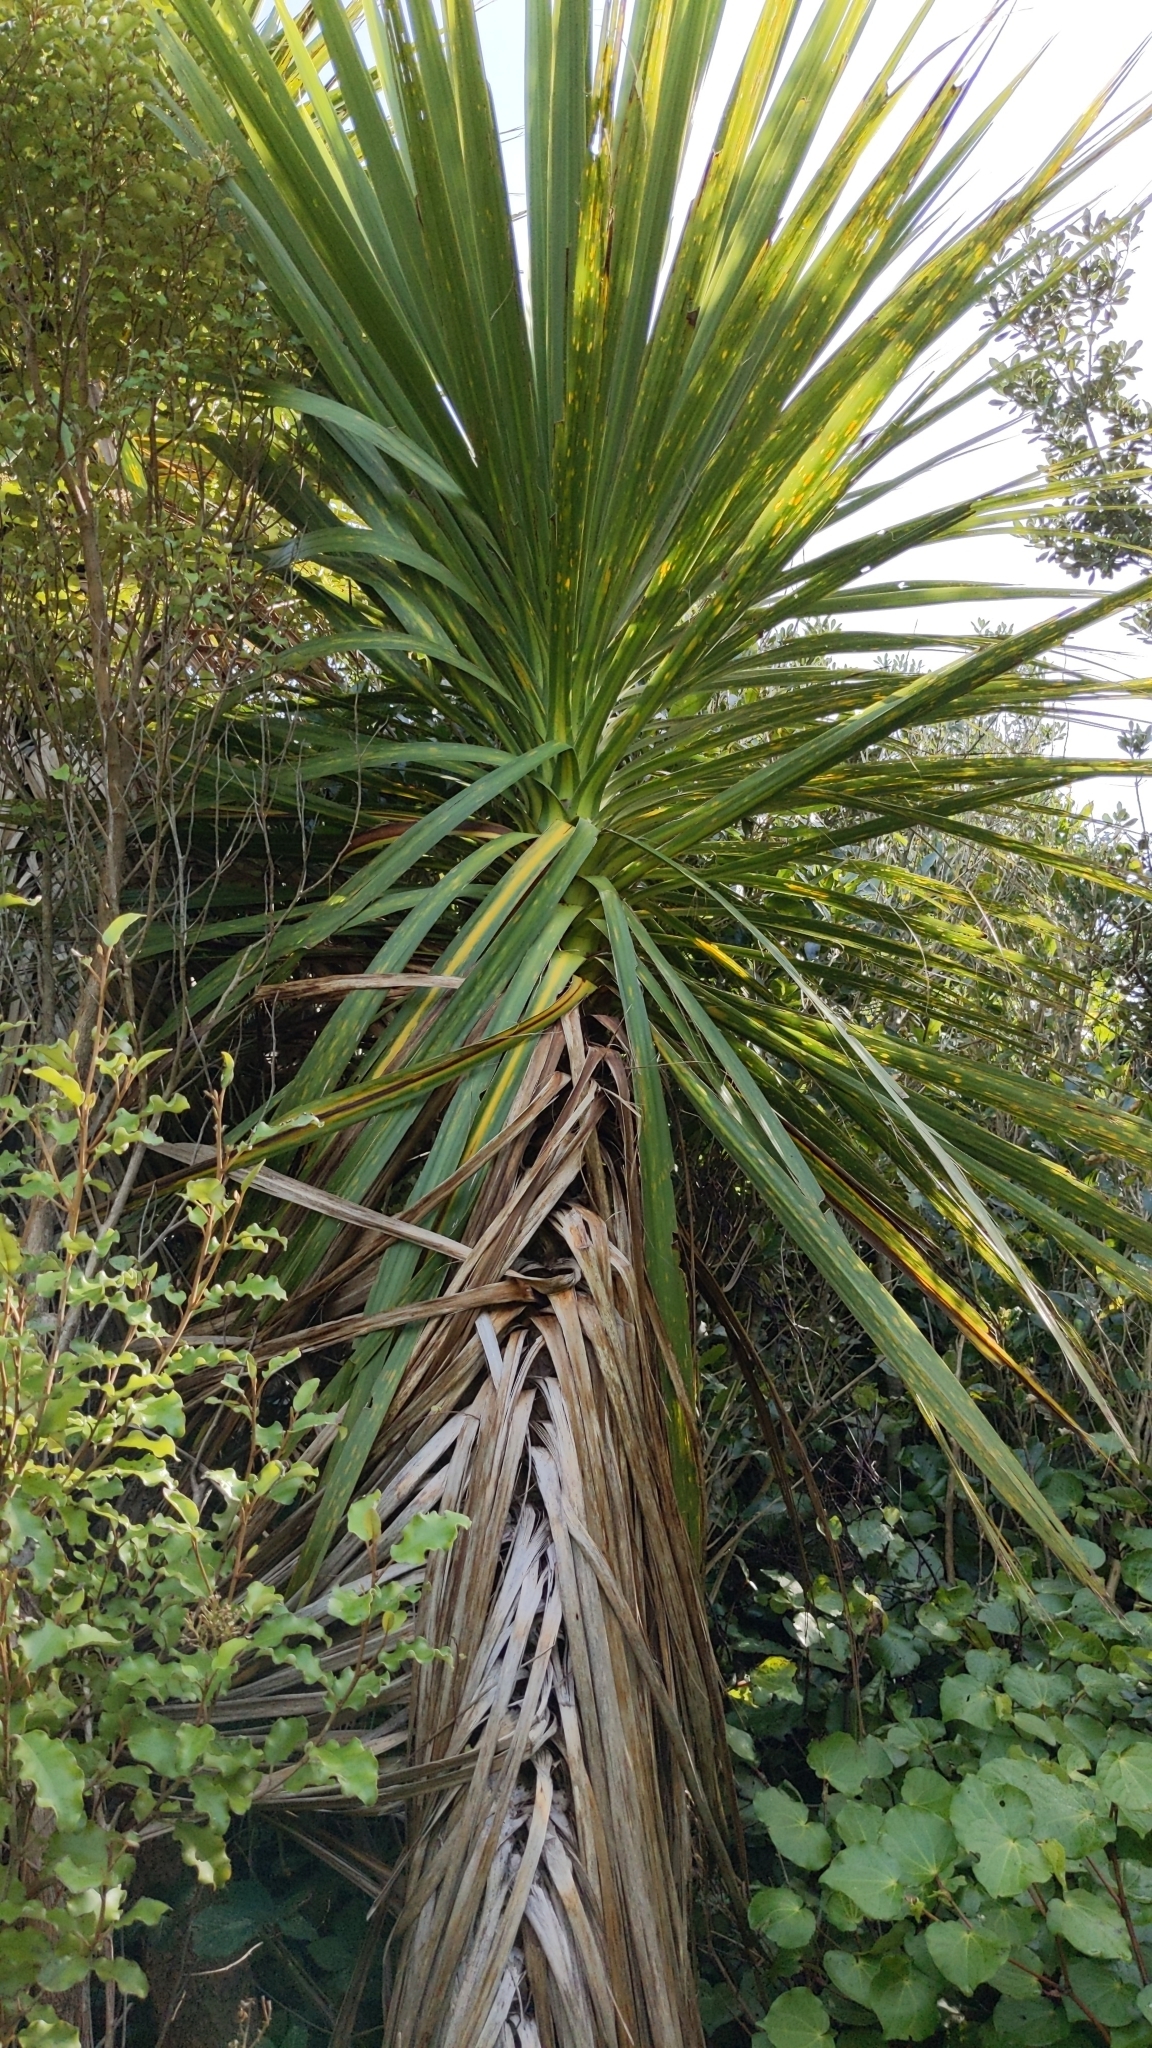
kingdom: Plantae
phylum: Tracheophyta
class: Liliopsida
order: Asparagales
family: Asparagaceae
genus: Cordyline
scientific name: Cordyline australis
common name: Cabbage-palm
